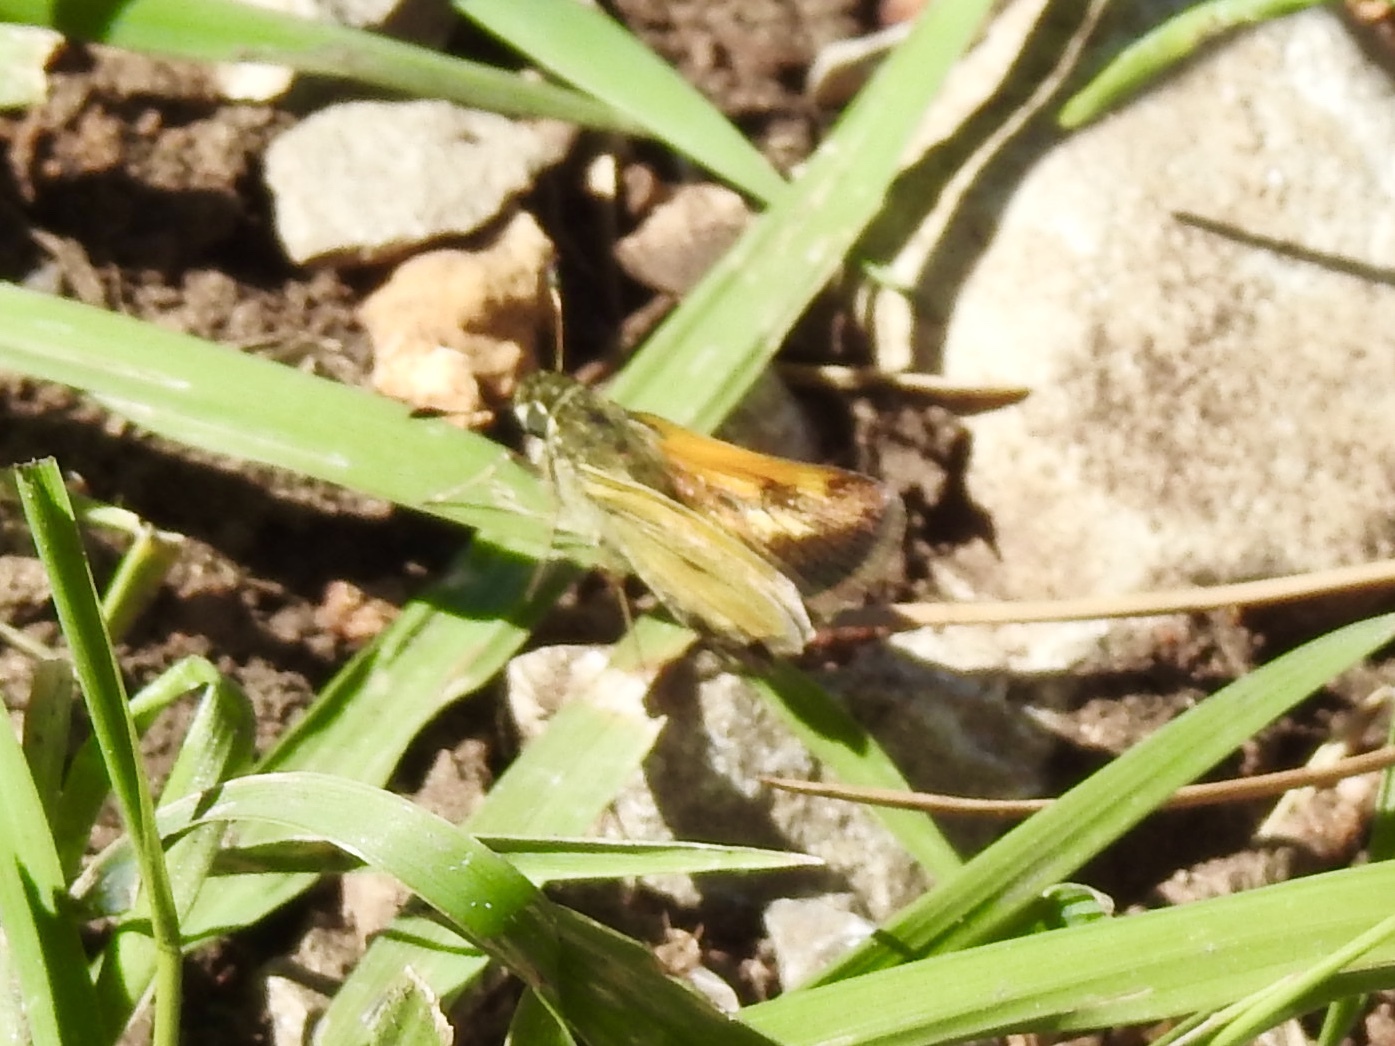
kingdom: Animalia
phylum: Arthropoda
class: Insecta
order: Lepidoptera
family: Hesperiidae
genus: Polites
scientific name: Polites themistocles
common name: Tawny-edged skipper
